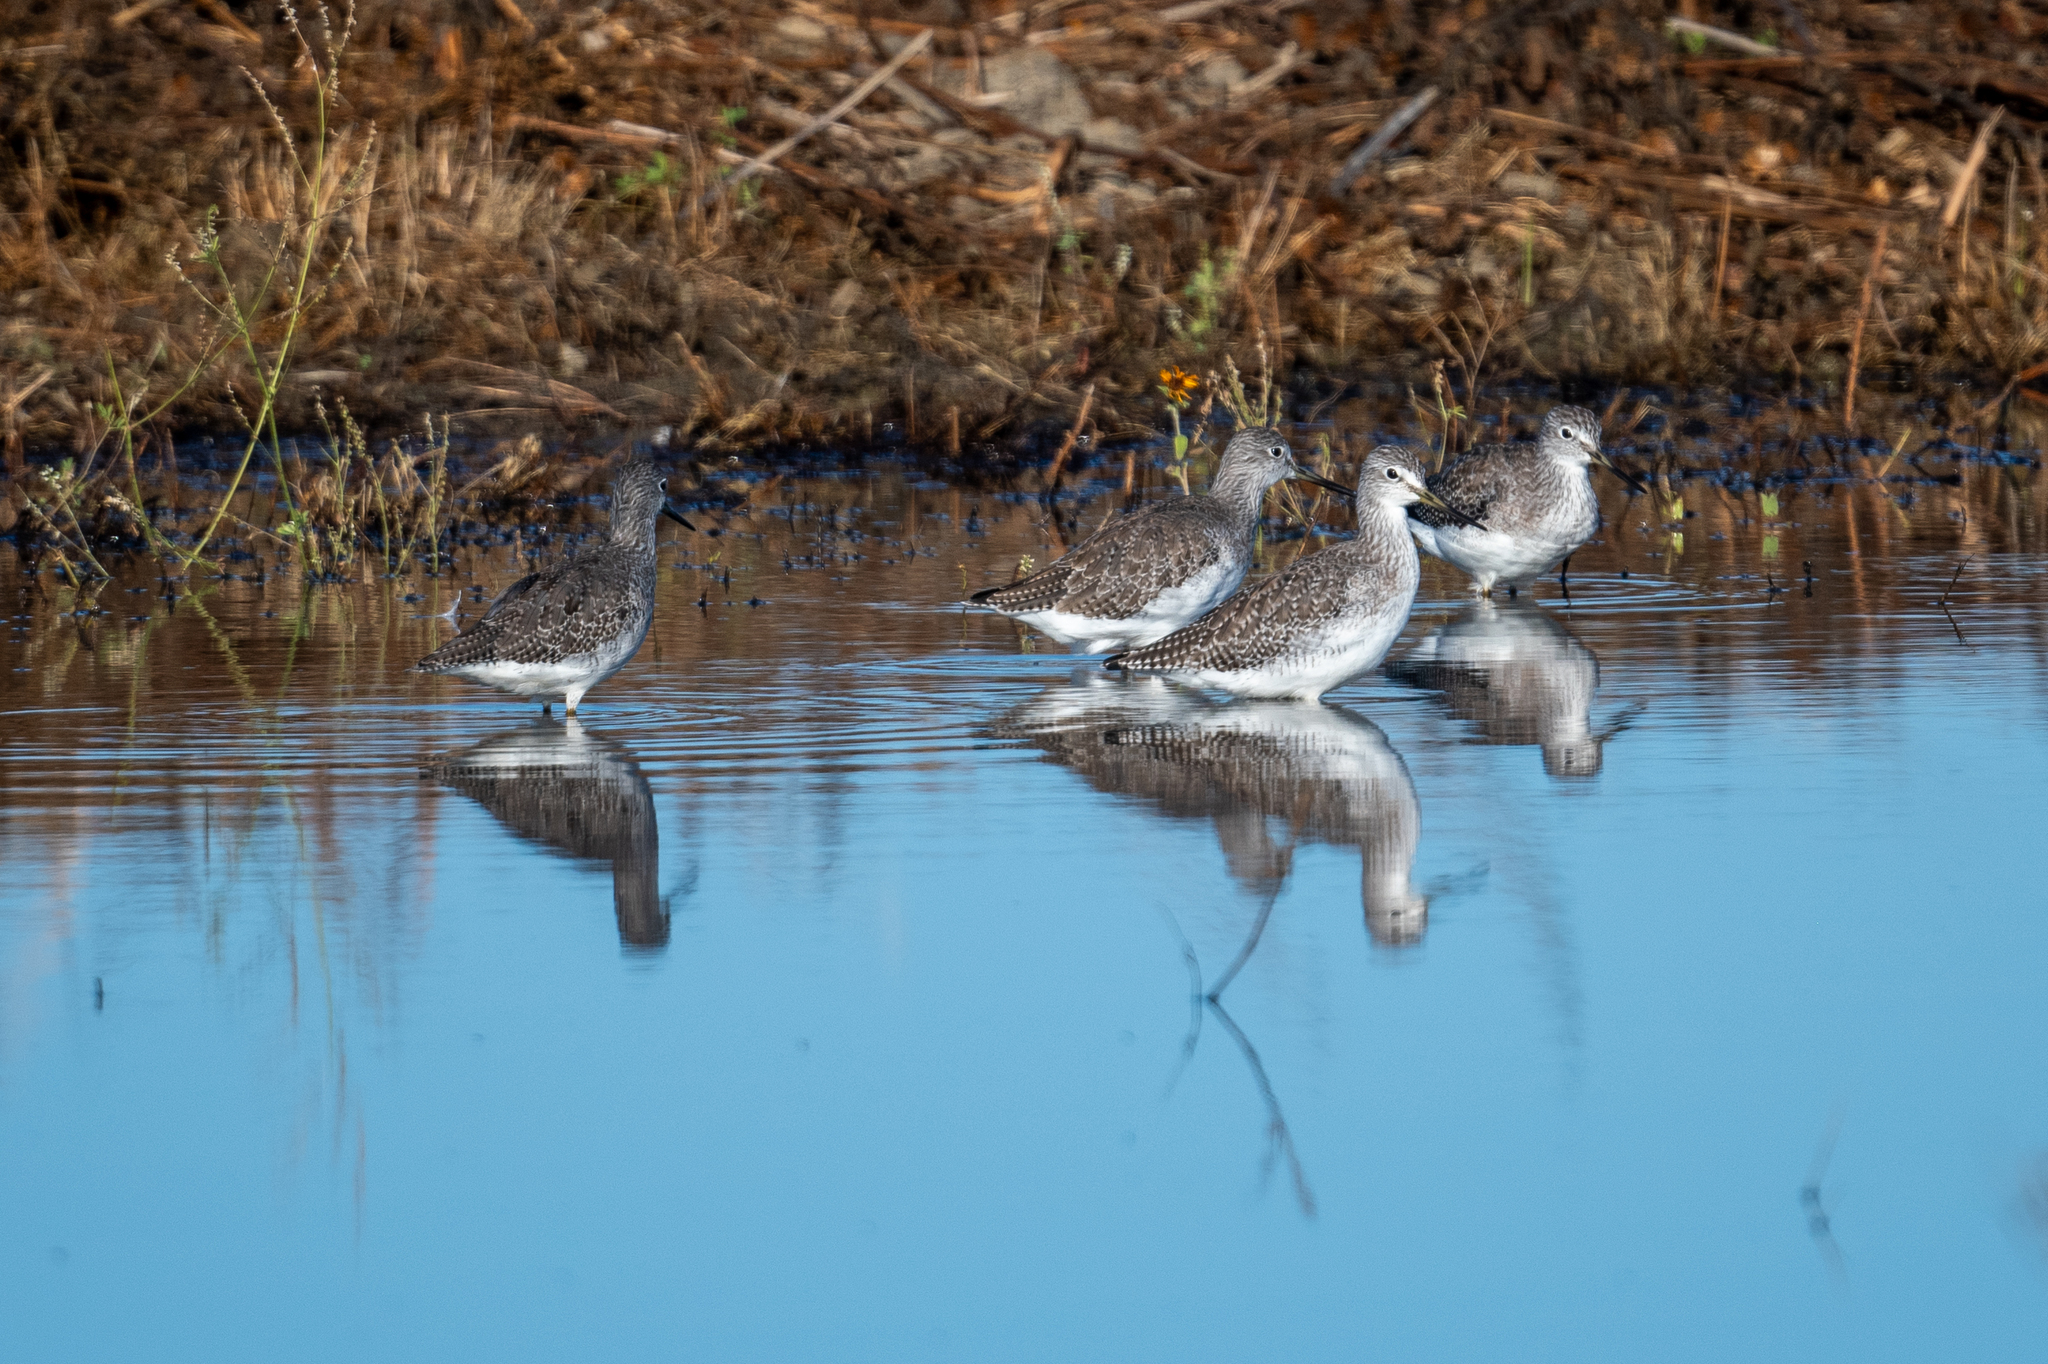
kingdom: Animalia
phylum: Chordata
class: Aves
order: Charadriiformes
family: Scolopacidae
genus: Tringa
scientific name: Tringa melanoleuca
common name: Greater yellowlegs
